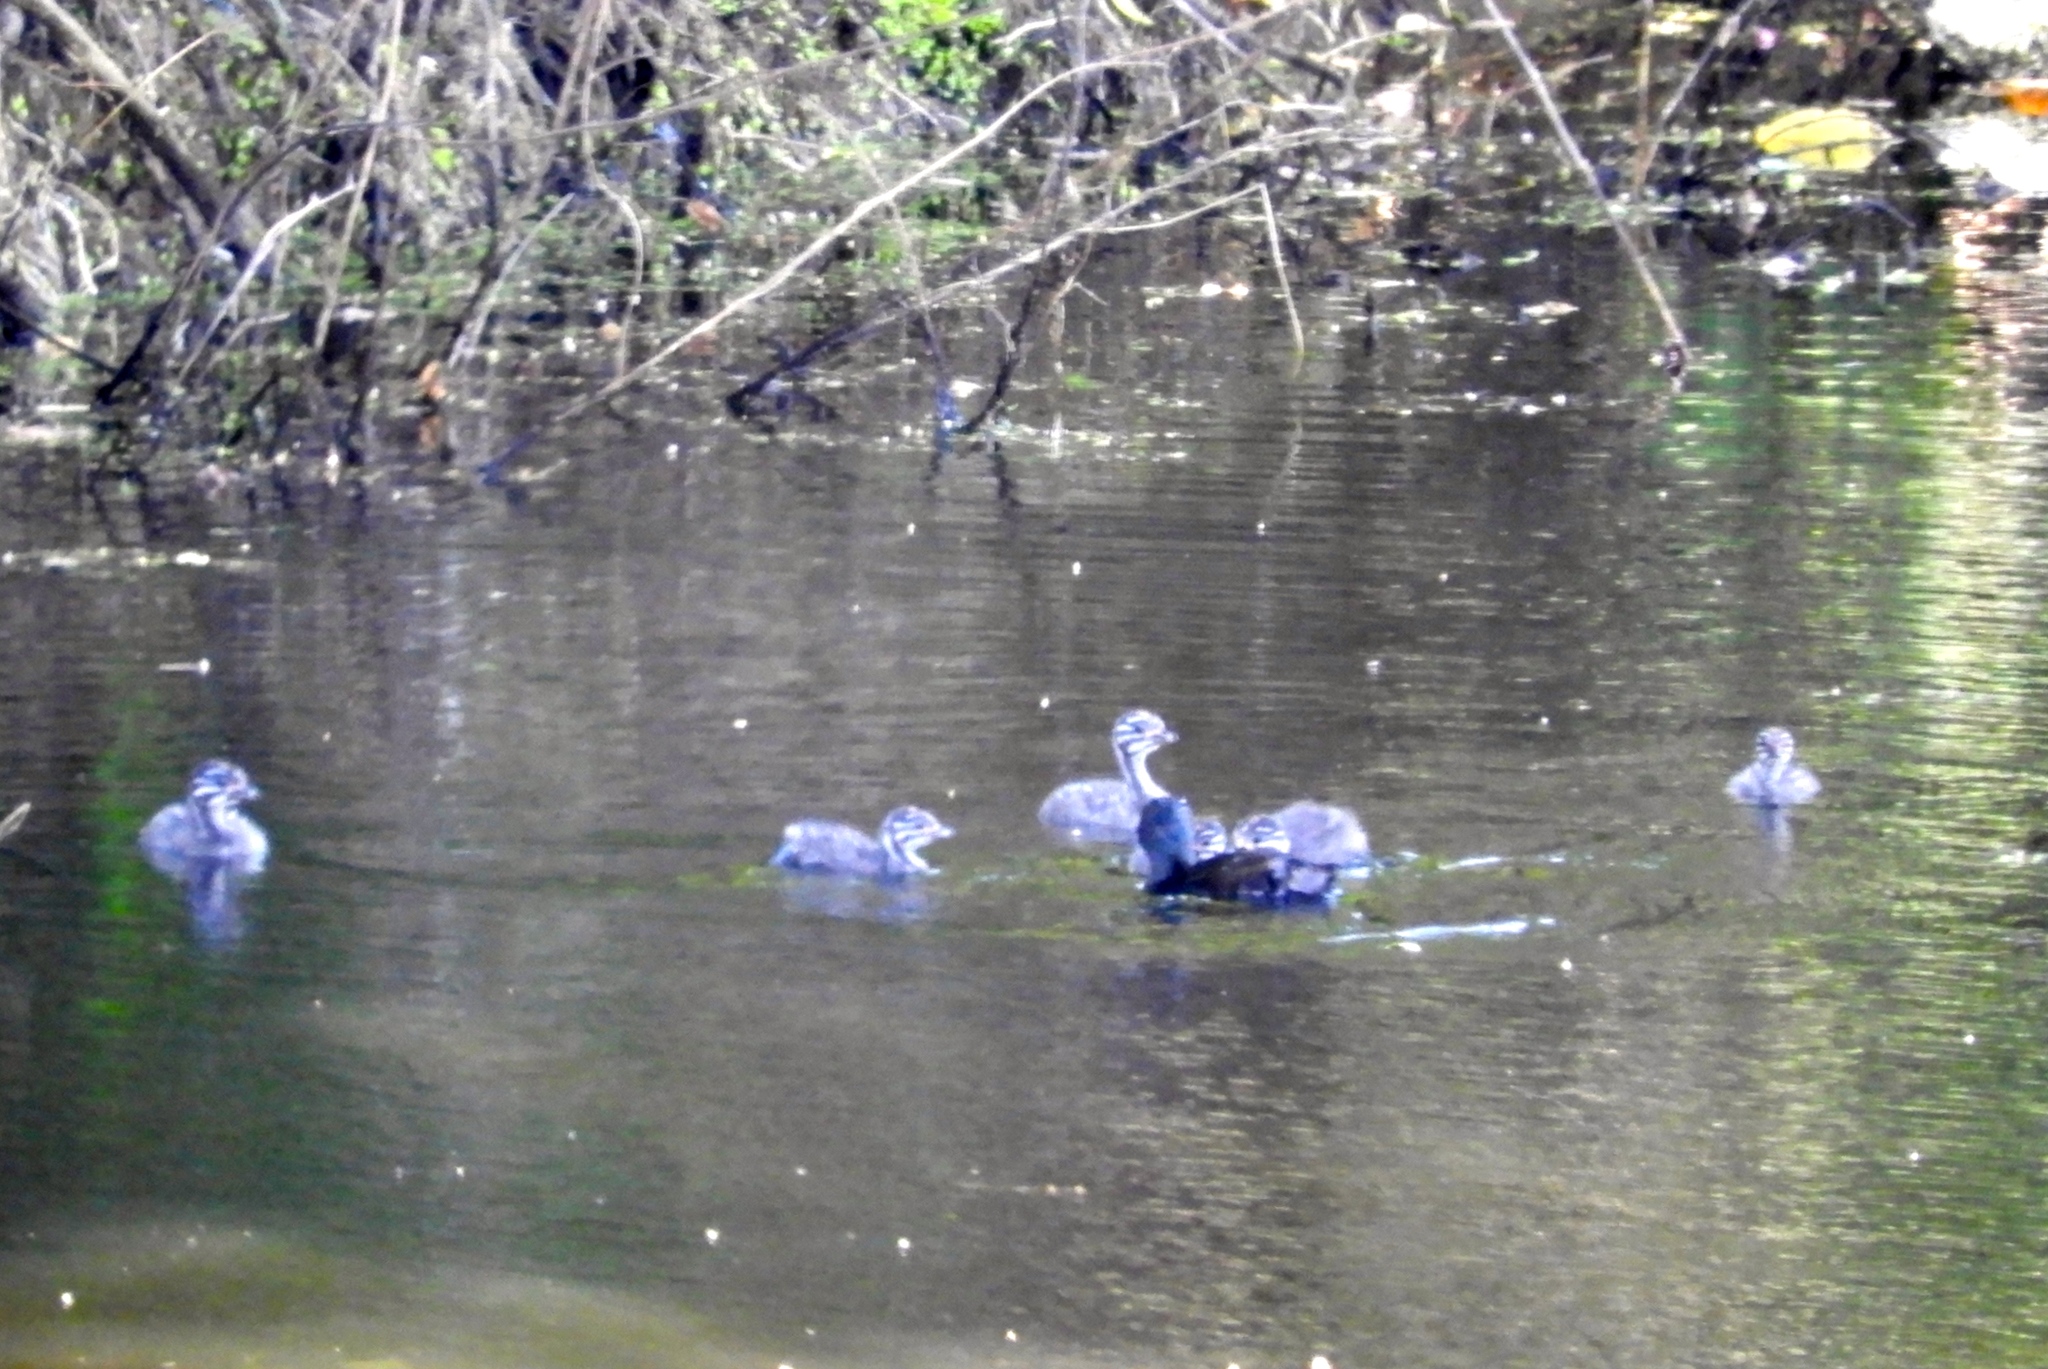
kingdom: Animalia
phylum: Chordata
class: Aves
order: Podicipediformes
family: Podicipedidae
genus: Tachybaptus
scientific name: Tachybaptus dominicus
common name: Least grebe
